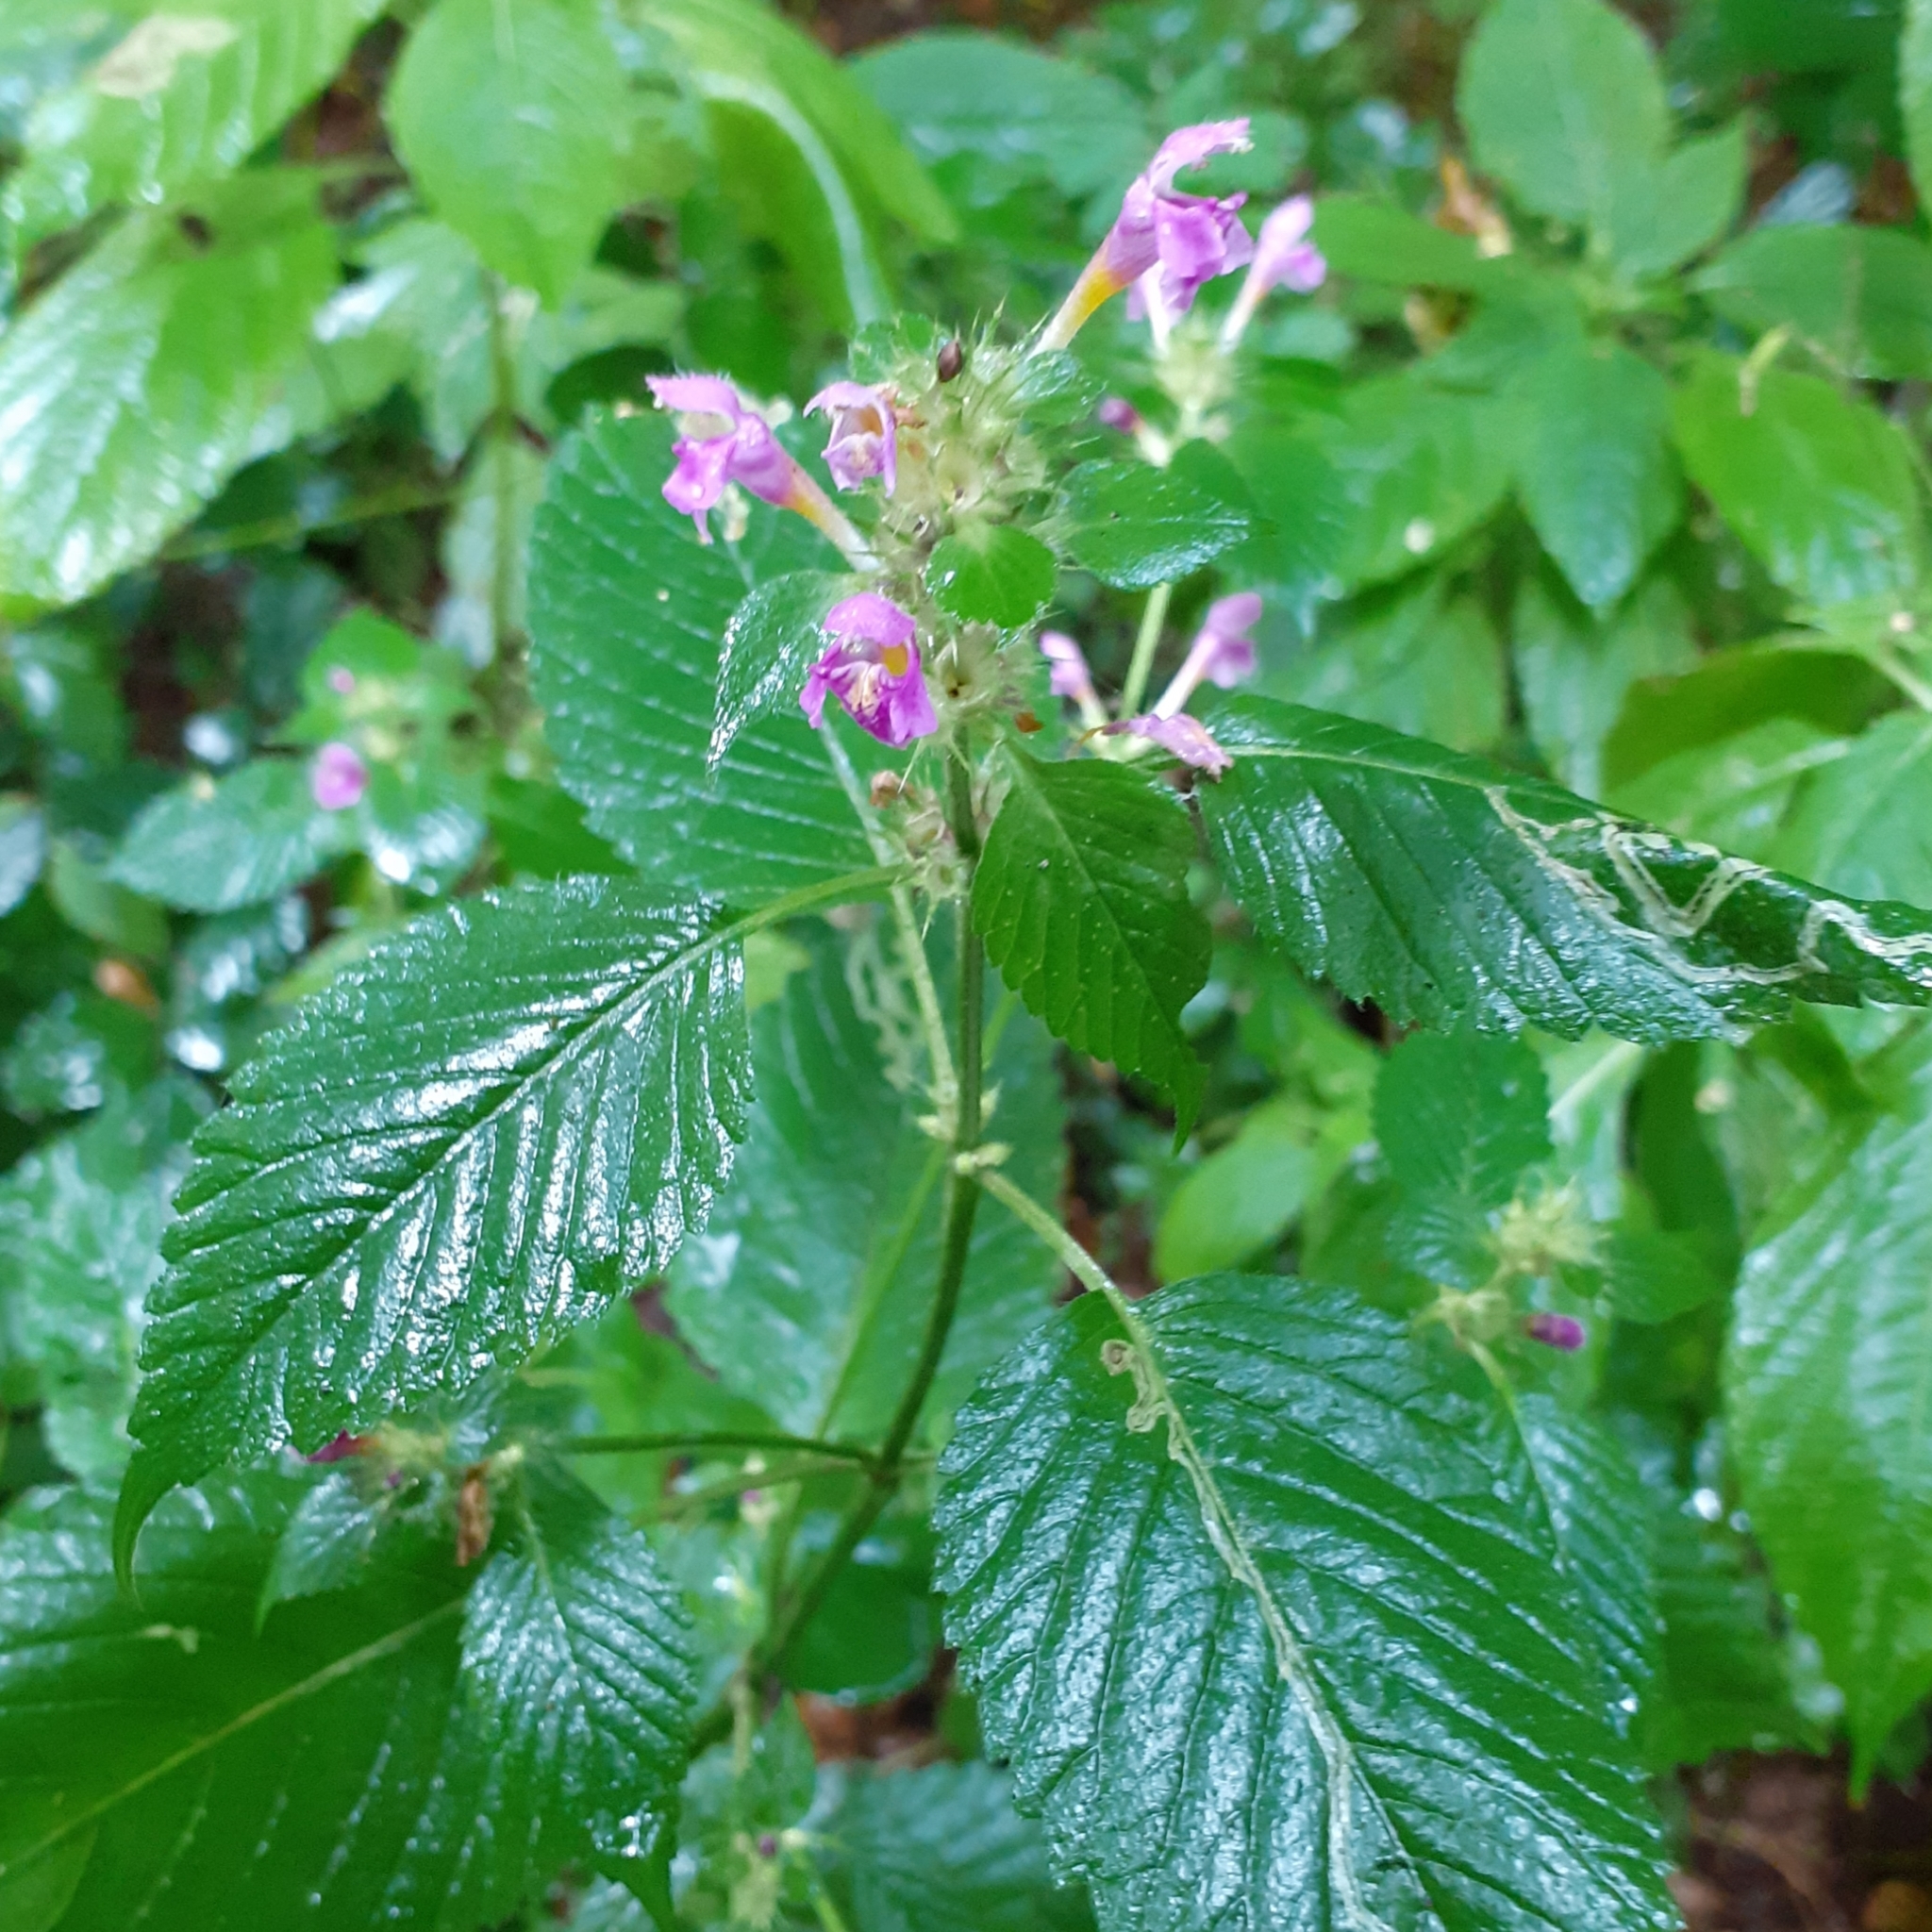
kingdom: Plantae
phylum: Tracheophyta
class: Magnoliopsida
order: Lamiales
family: Lamiaceae
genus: Galeopsis
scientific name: Galeopsis pubescens
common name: Downy hemp-nettle
